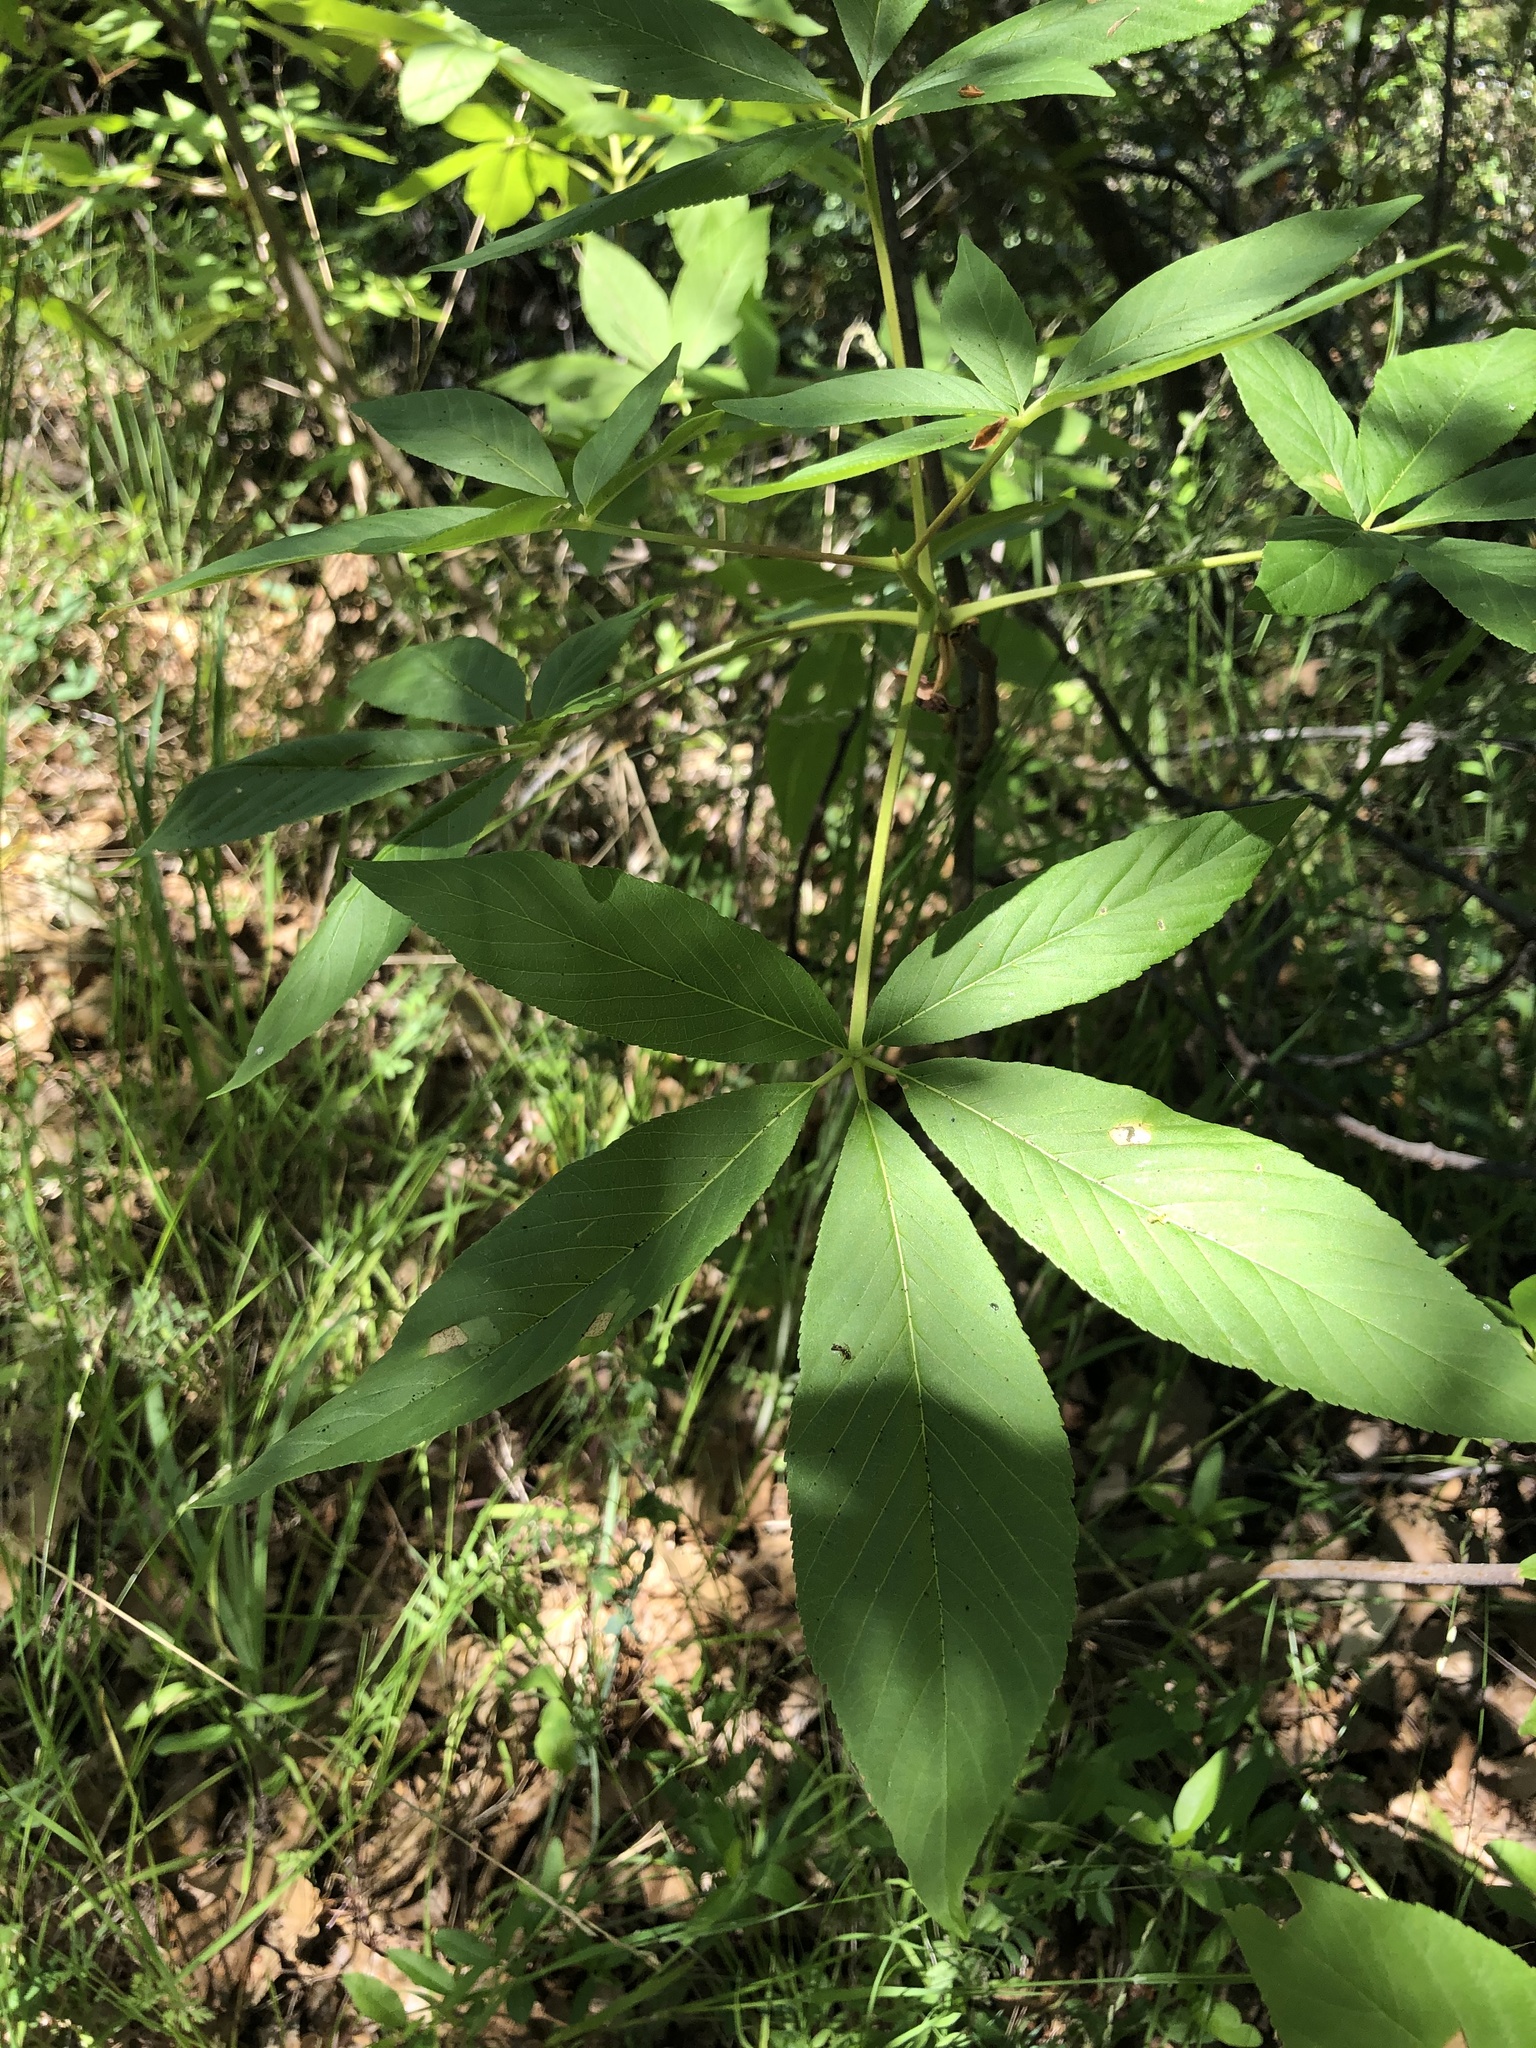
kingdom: Plantae
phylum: Tracheophyta
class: Magnoliopsida
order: Sapindales
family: Sapindaceae
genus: Aesculus
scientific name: Aesculus californica
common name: California buckeye
